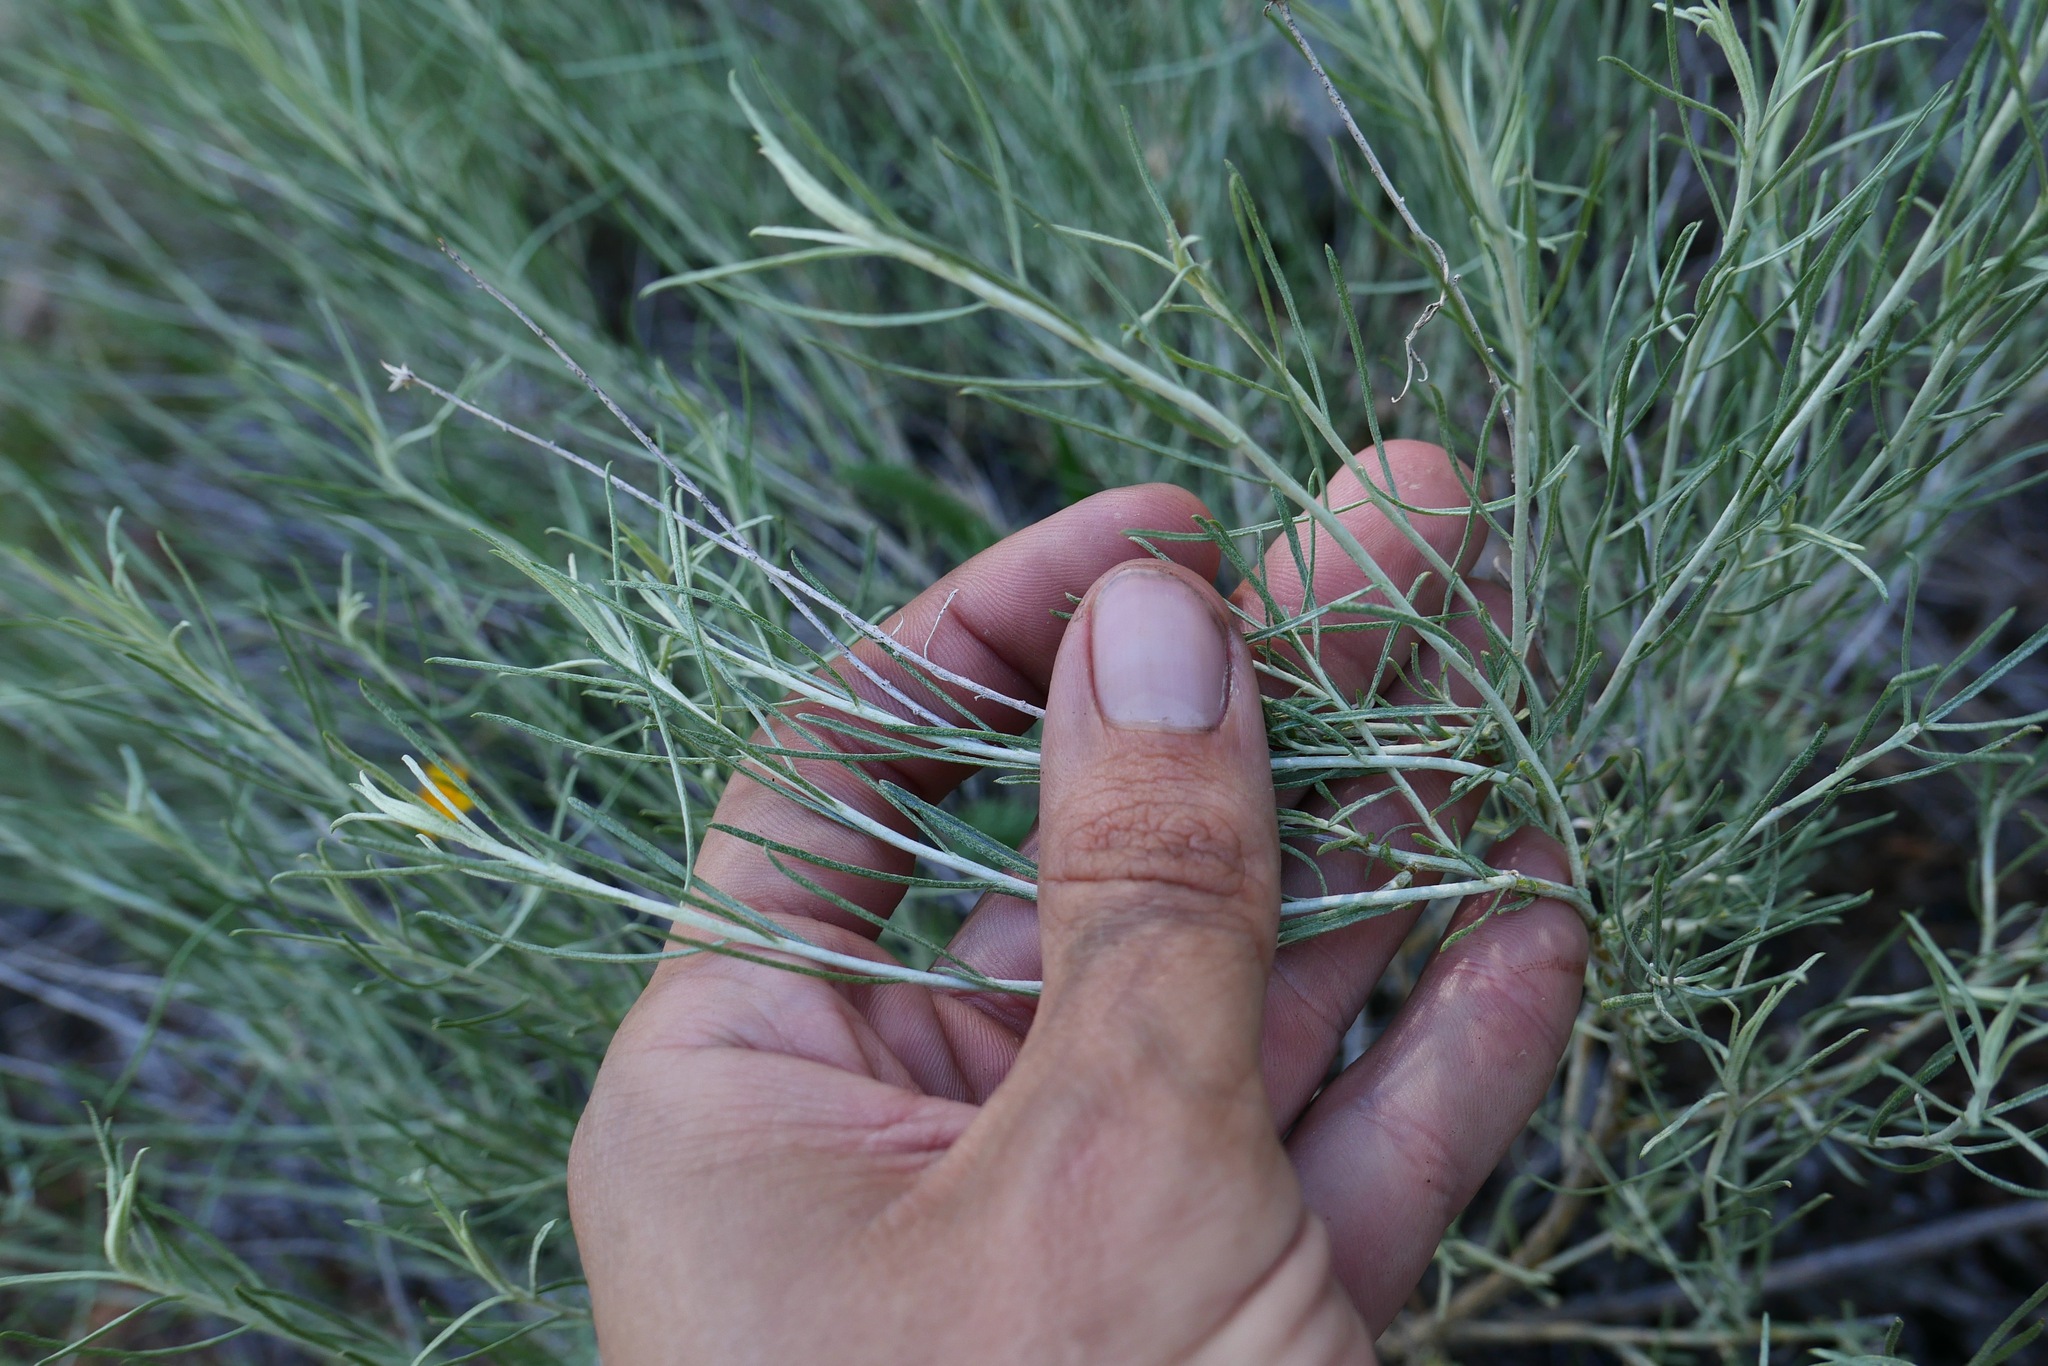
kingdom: Plantae
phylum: Tracheophyta
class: Magnoliopsida
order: Asterales
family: Asteraceae
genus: Ericameria
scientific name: Ericameria nauseosa
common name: Rubber rabbitbrush
